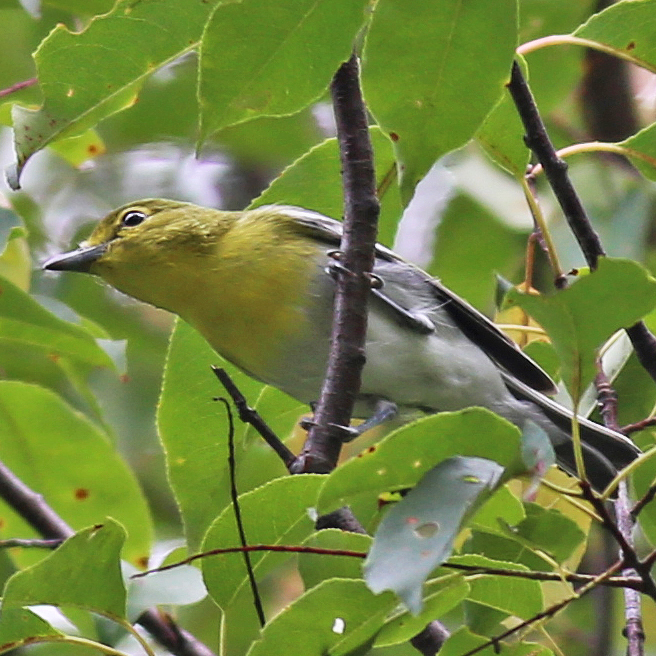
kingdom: Animalia
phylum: Chordata
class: Aves
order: Passeriformes
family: Vireonidae
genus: Vireo
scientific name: Vireo flavifrons
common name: Yellow-throated vireo
